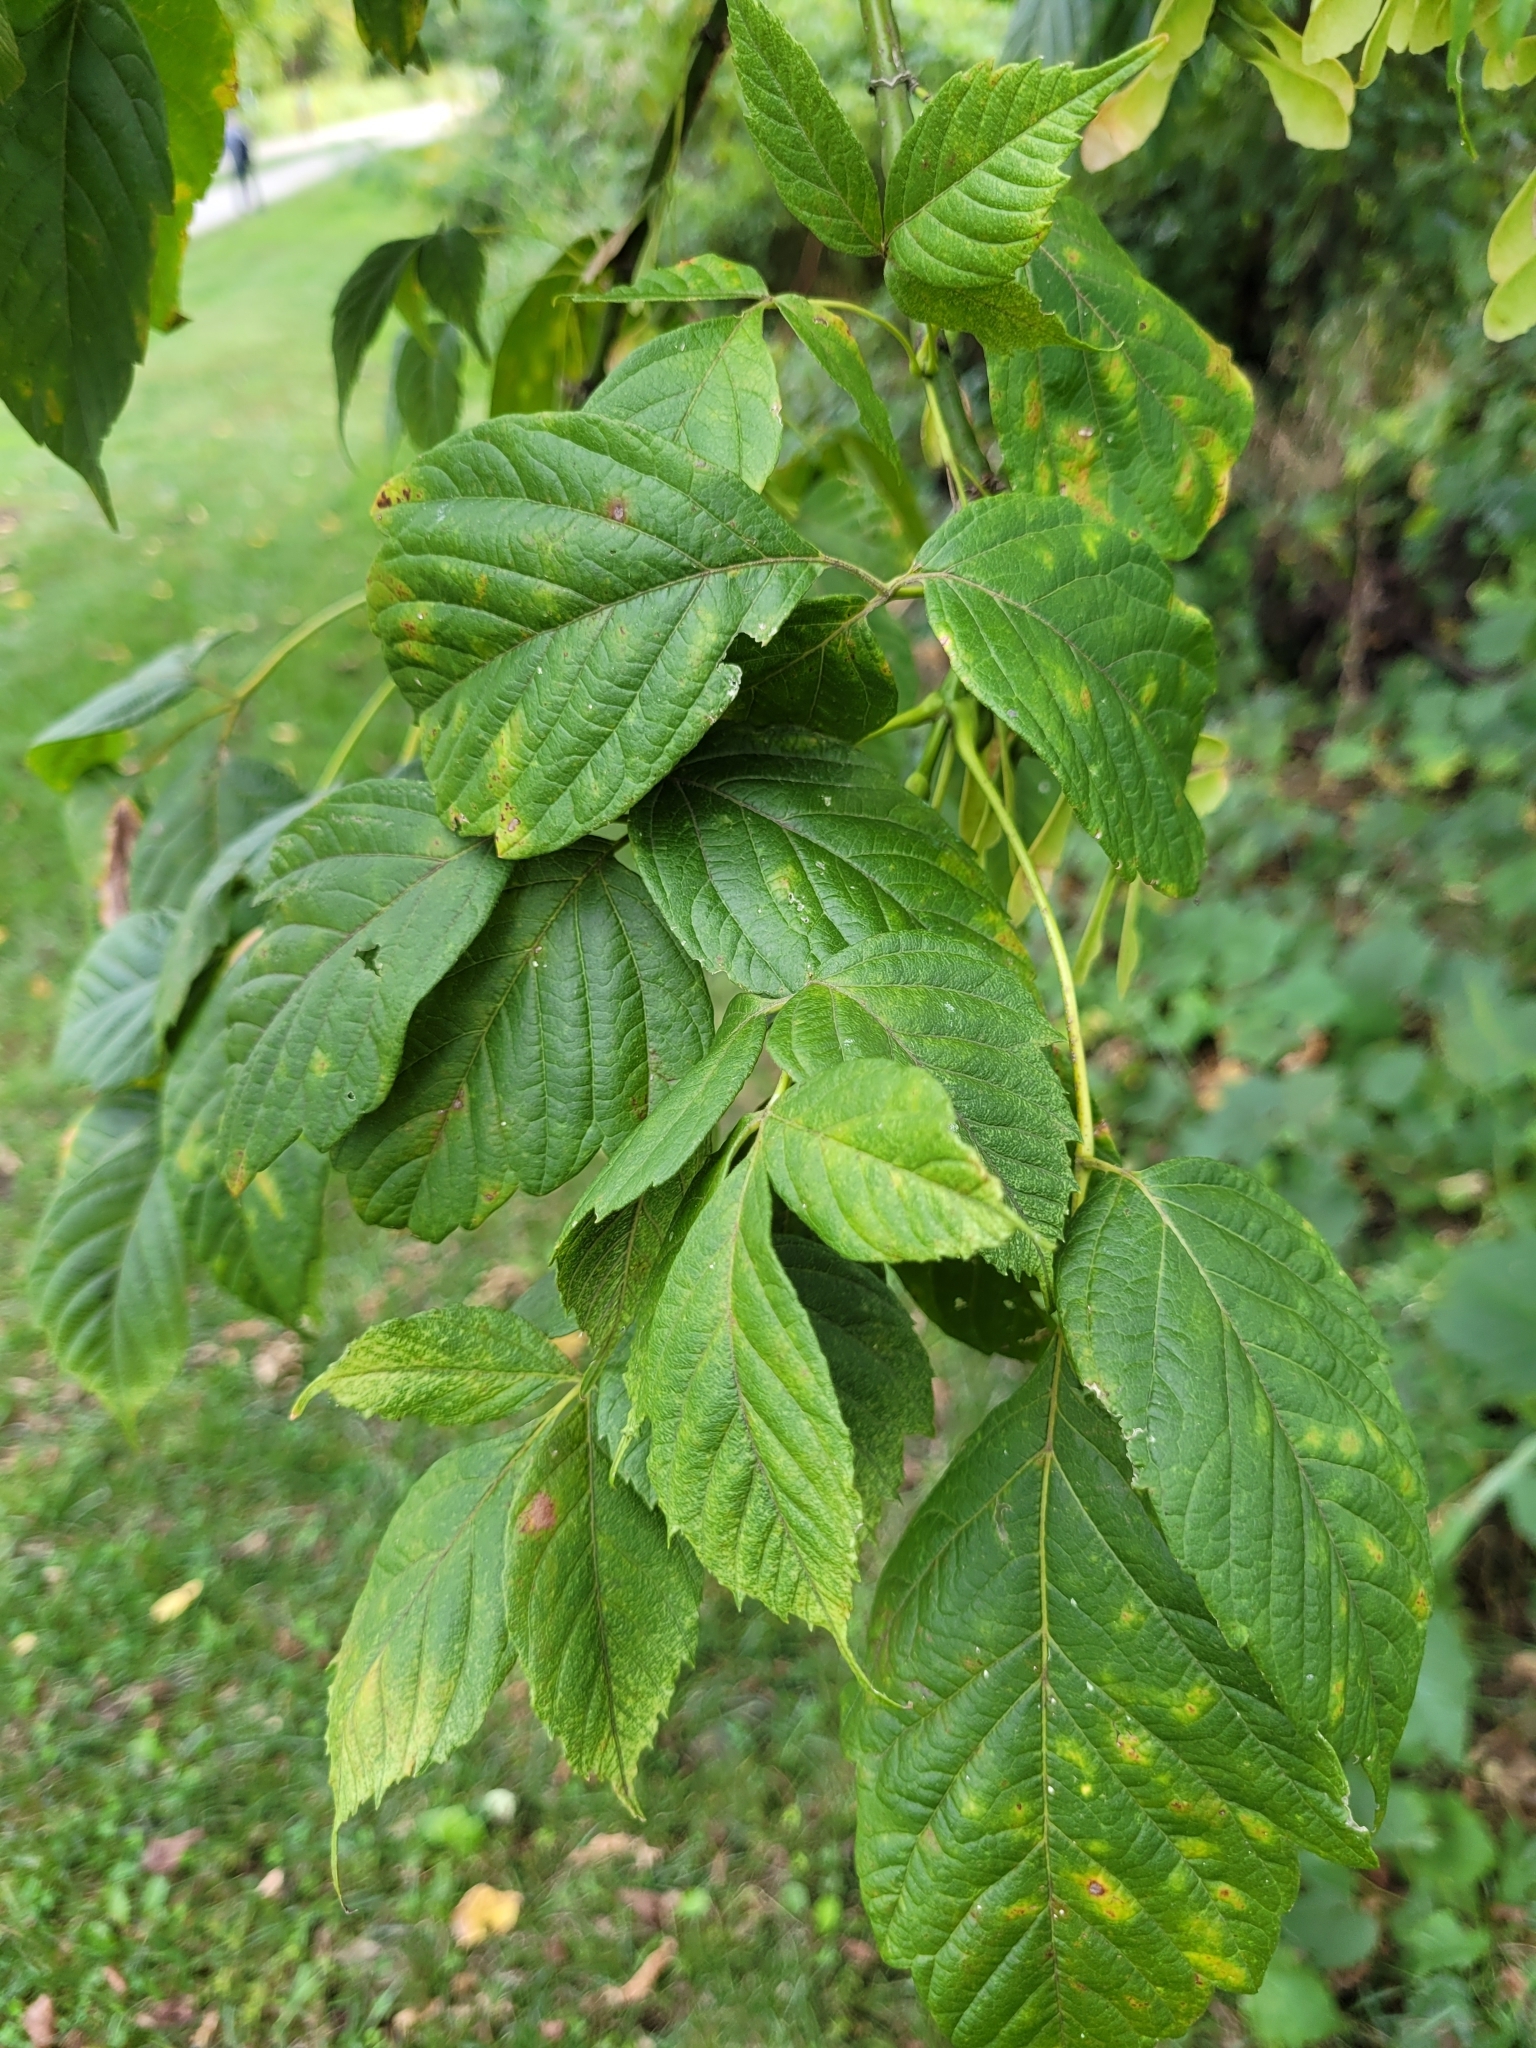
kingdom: Plantae
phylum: Tracheophyta
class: Magnoliopsida
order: Sapindales
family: Sapindaceae
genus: Acer
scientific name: Acer negundo
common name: Ashleaf maple
